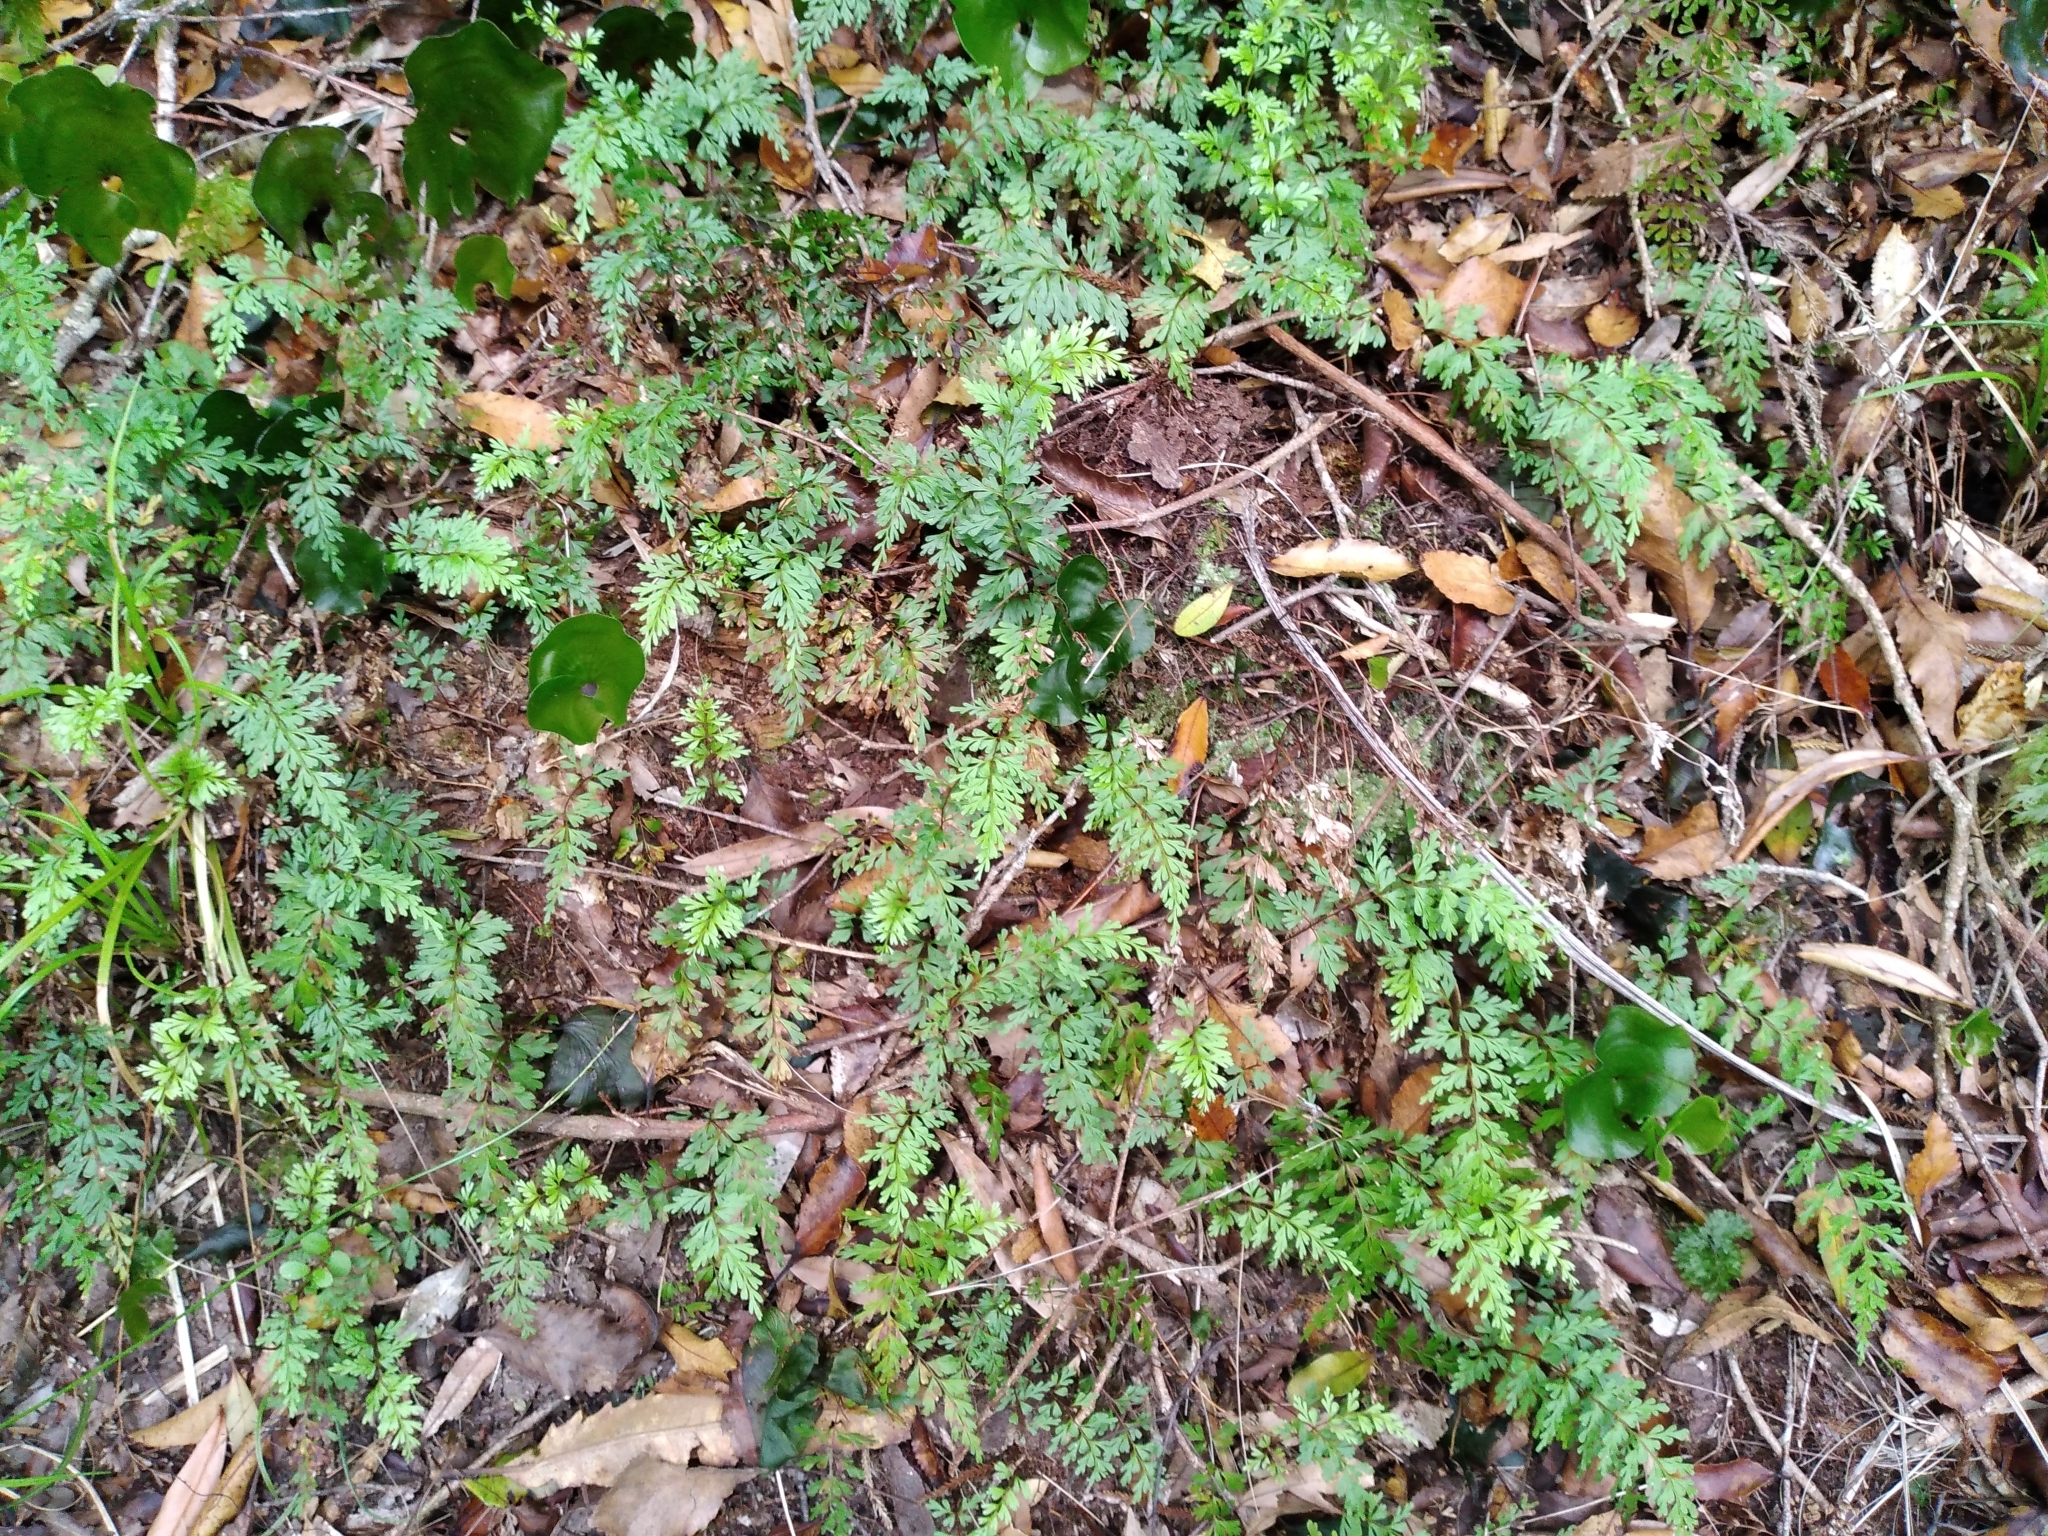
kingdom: Plantae
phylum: Tracheophyta
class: Polypodiopsida
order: Polypodiales
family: Lindsaeaceae
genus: Lindsaea
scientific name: Lindsaea trichomanoides
